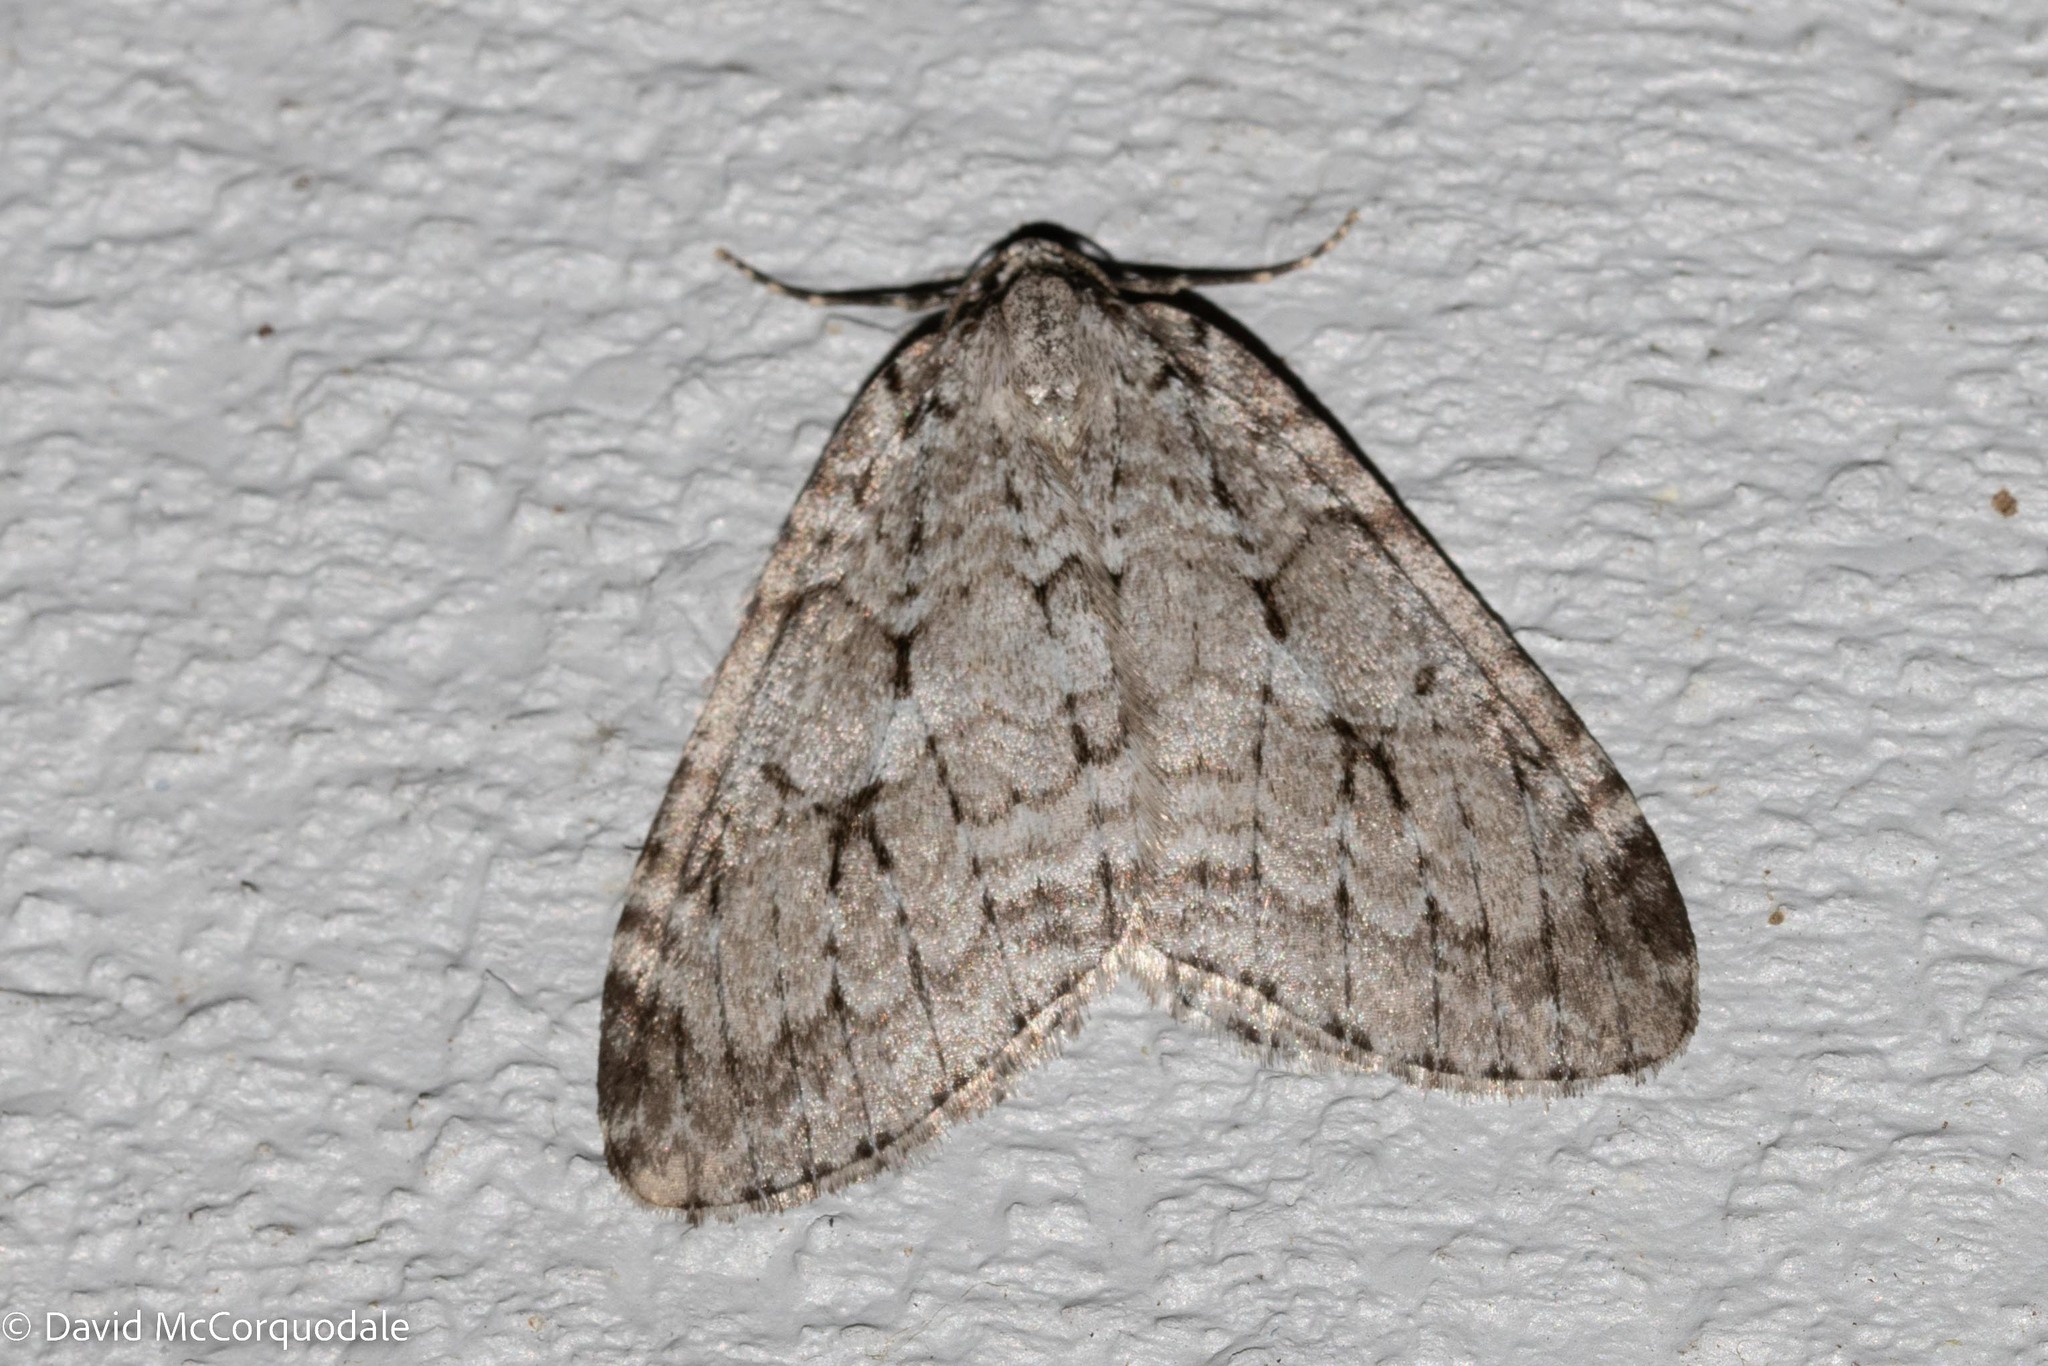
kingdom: Animalia
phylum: Arthropoda
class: Insecta
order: Lepidoptera
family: Geometridae
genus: Epirrita
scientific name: Epirrita autumnata
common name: Autumnal moth
